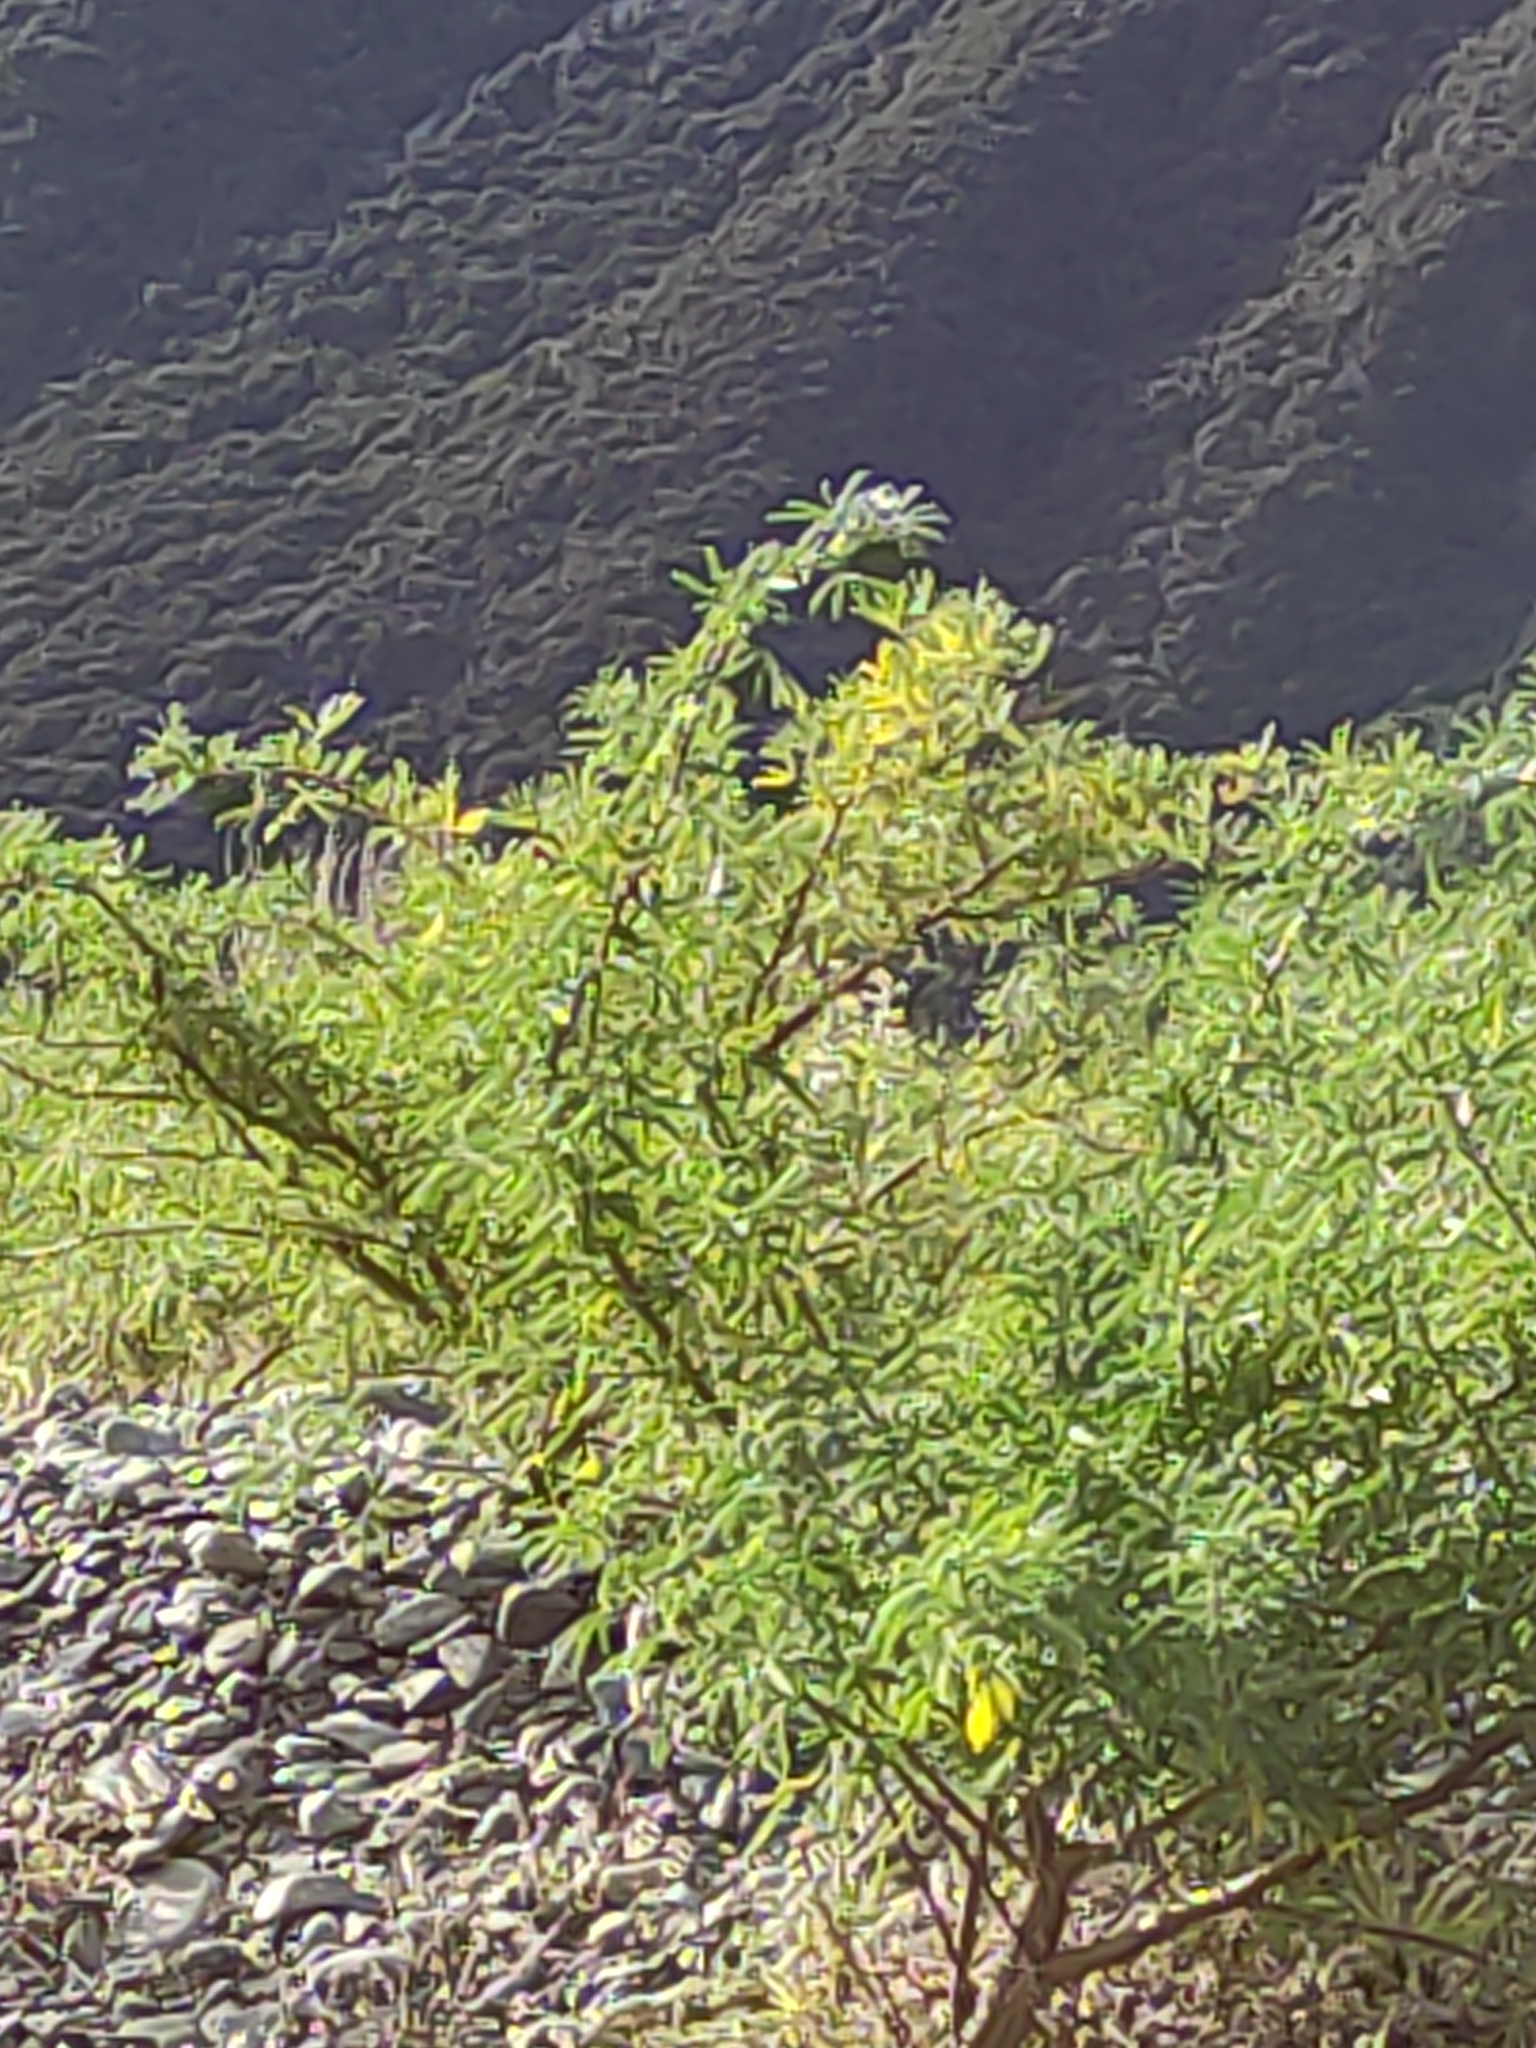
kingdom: Plantae
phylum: Tracheophyta
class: Magnoliopsida
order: Fabales
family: Fabaceae
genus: Lupinus
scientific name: Lupinus arboreus
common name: Yellow bush lupine
